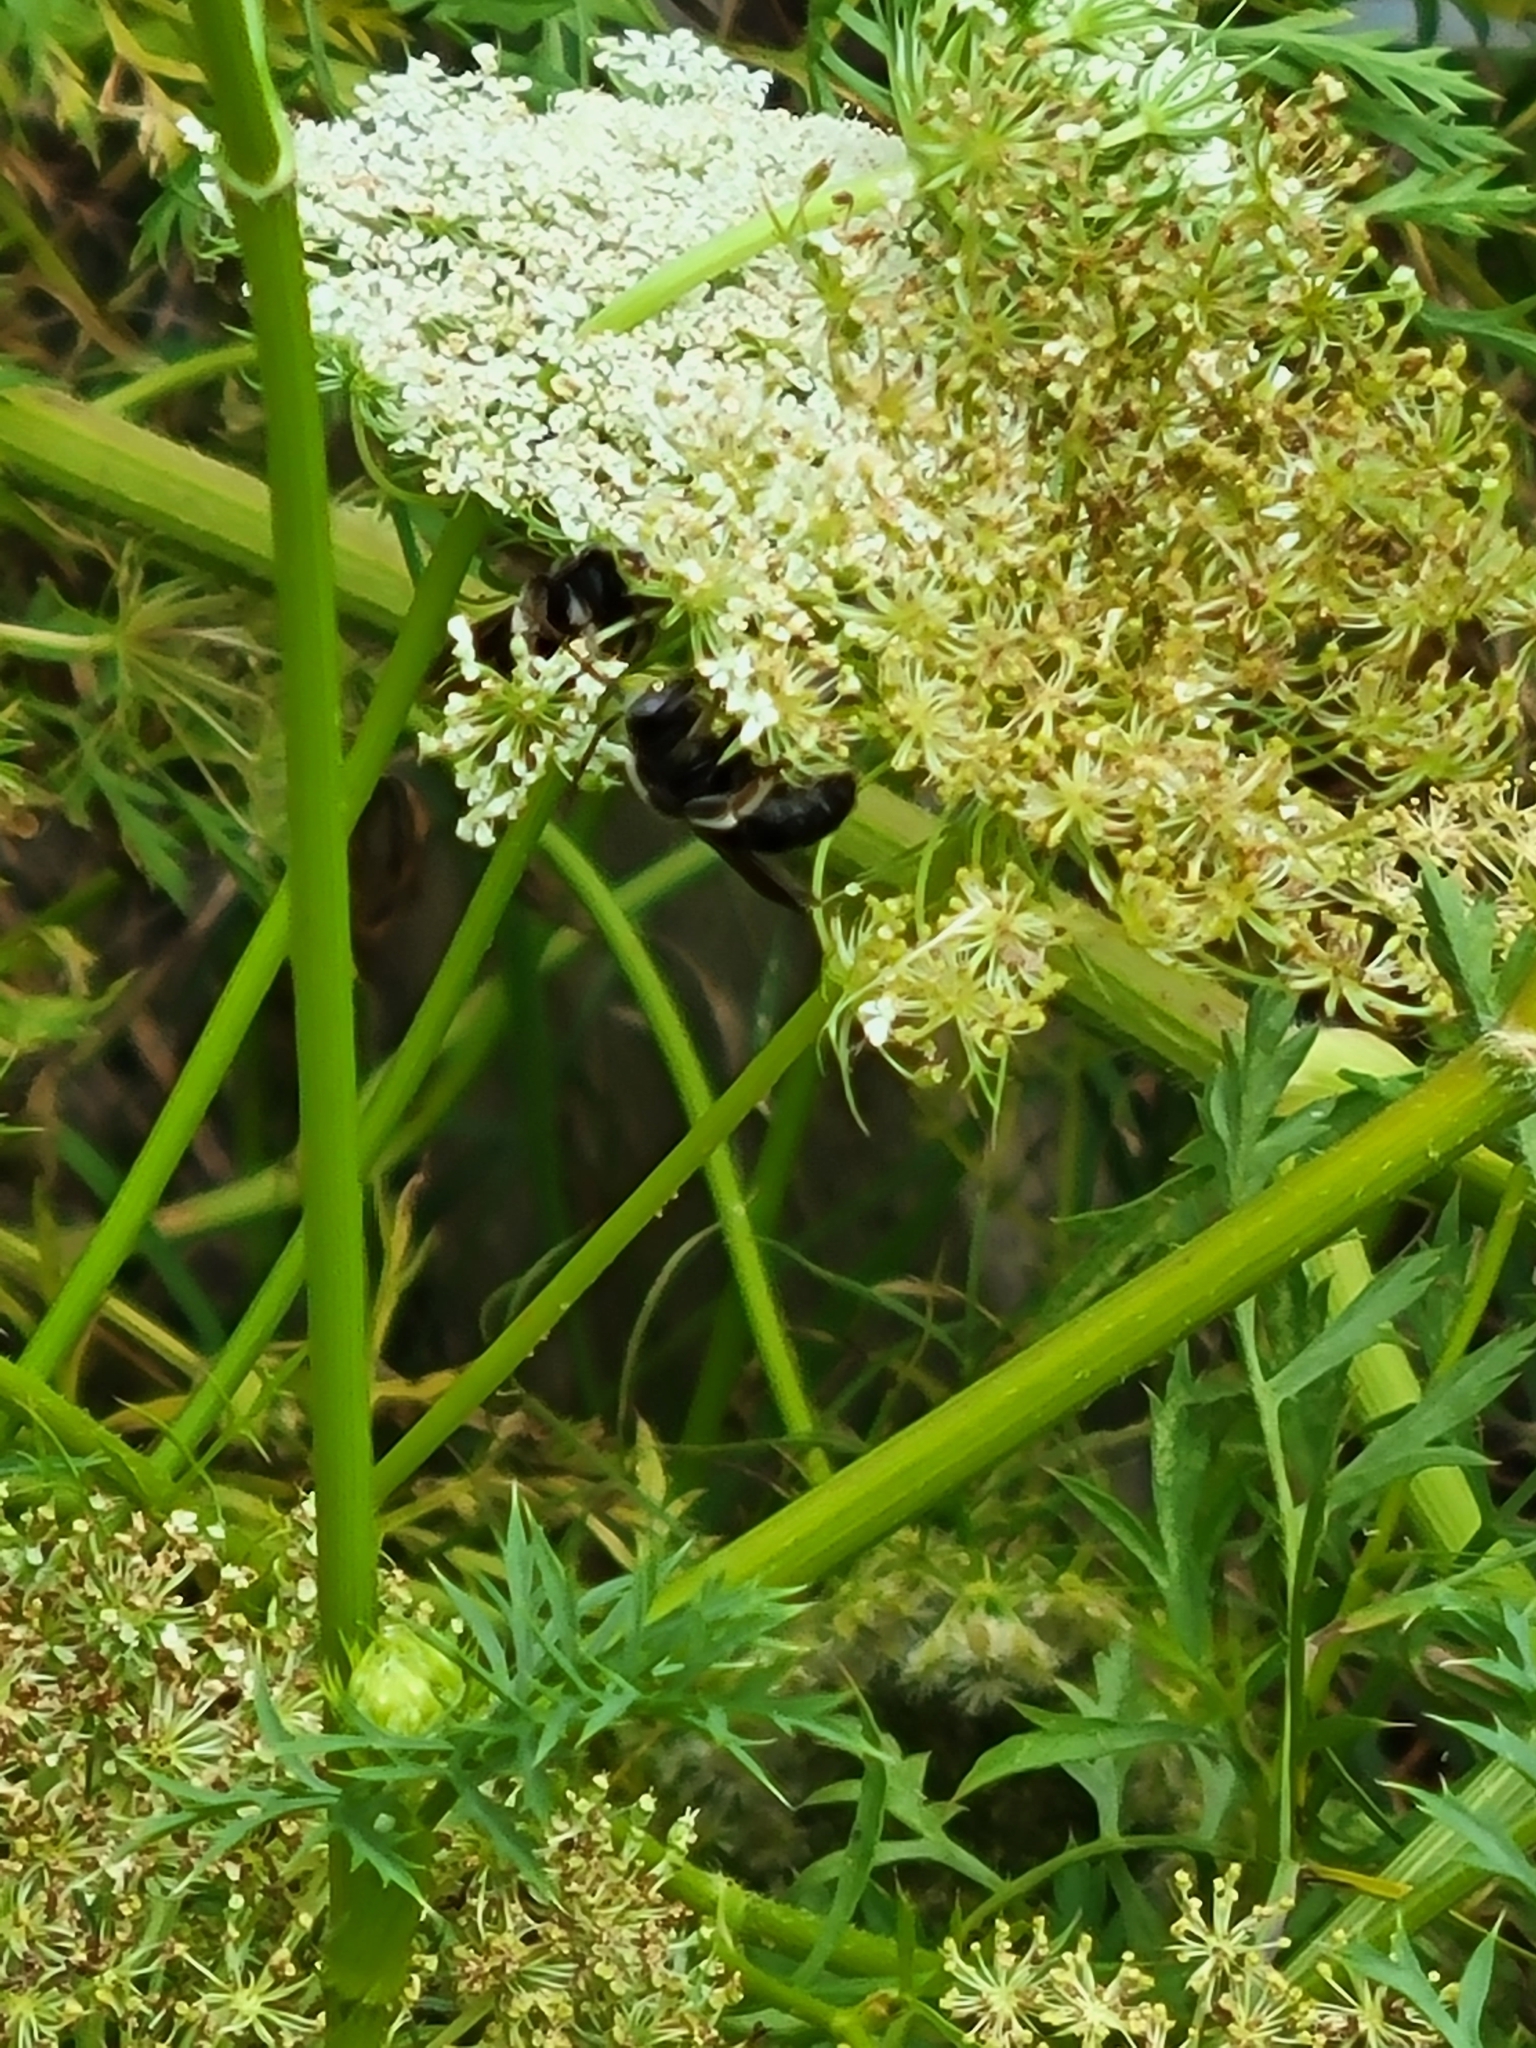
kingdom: Animalia
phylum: Arthropoda
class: Insecta
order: Hymenoptera
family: Apidae
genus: Melissodes
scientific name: Melissodes bimaculatus
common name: Two-spotted long-horned bee
